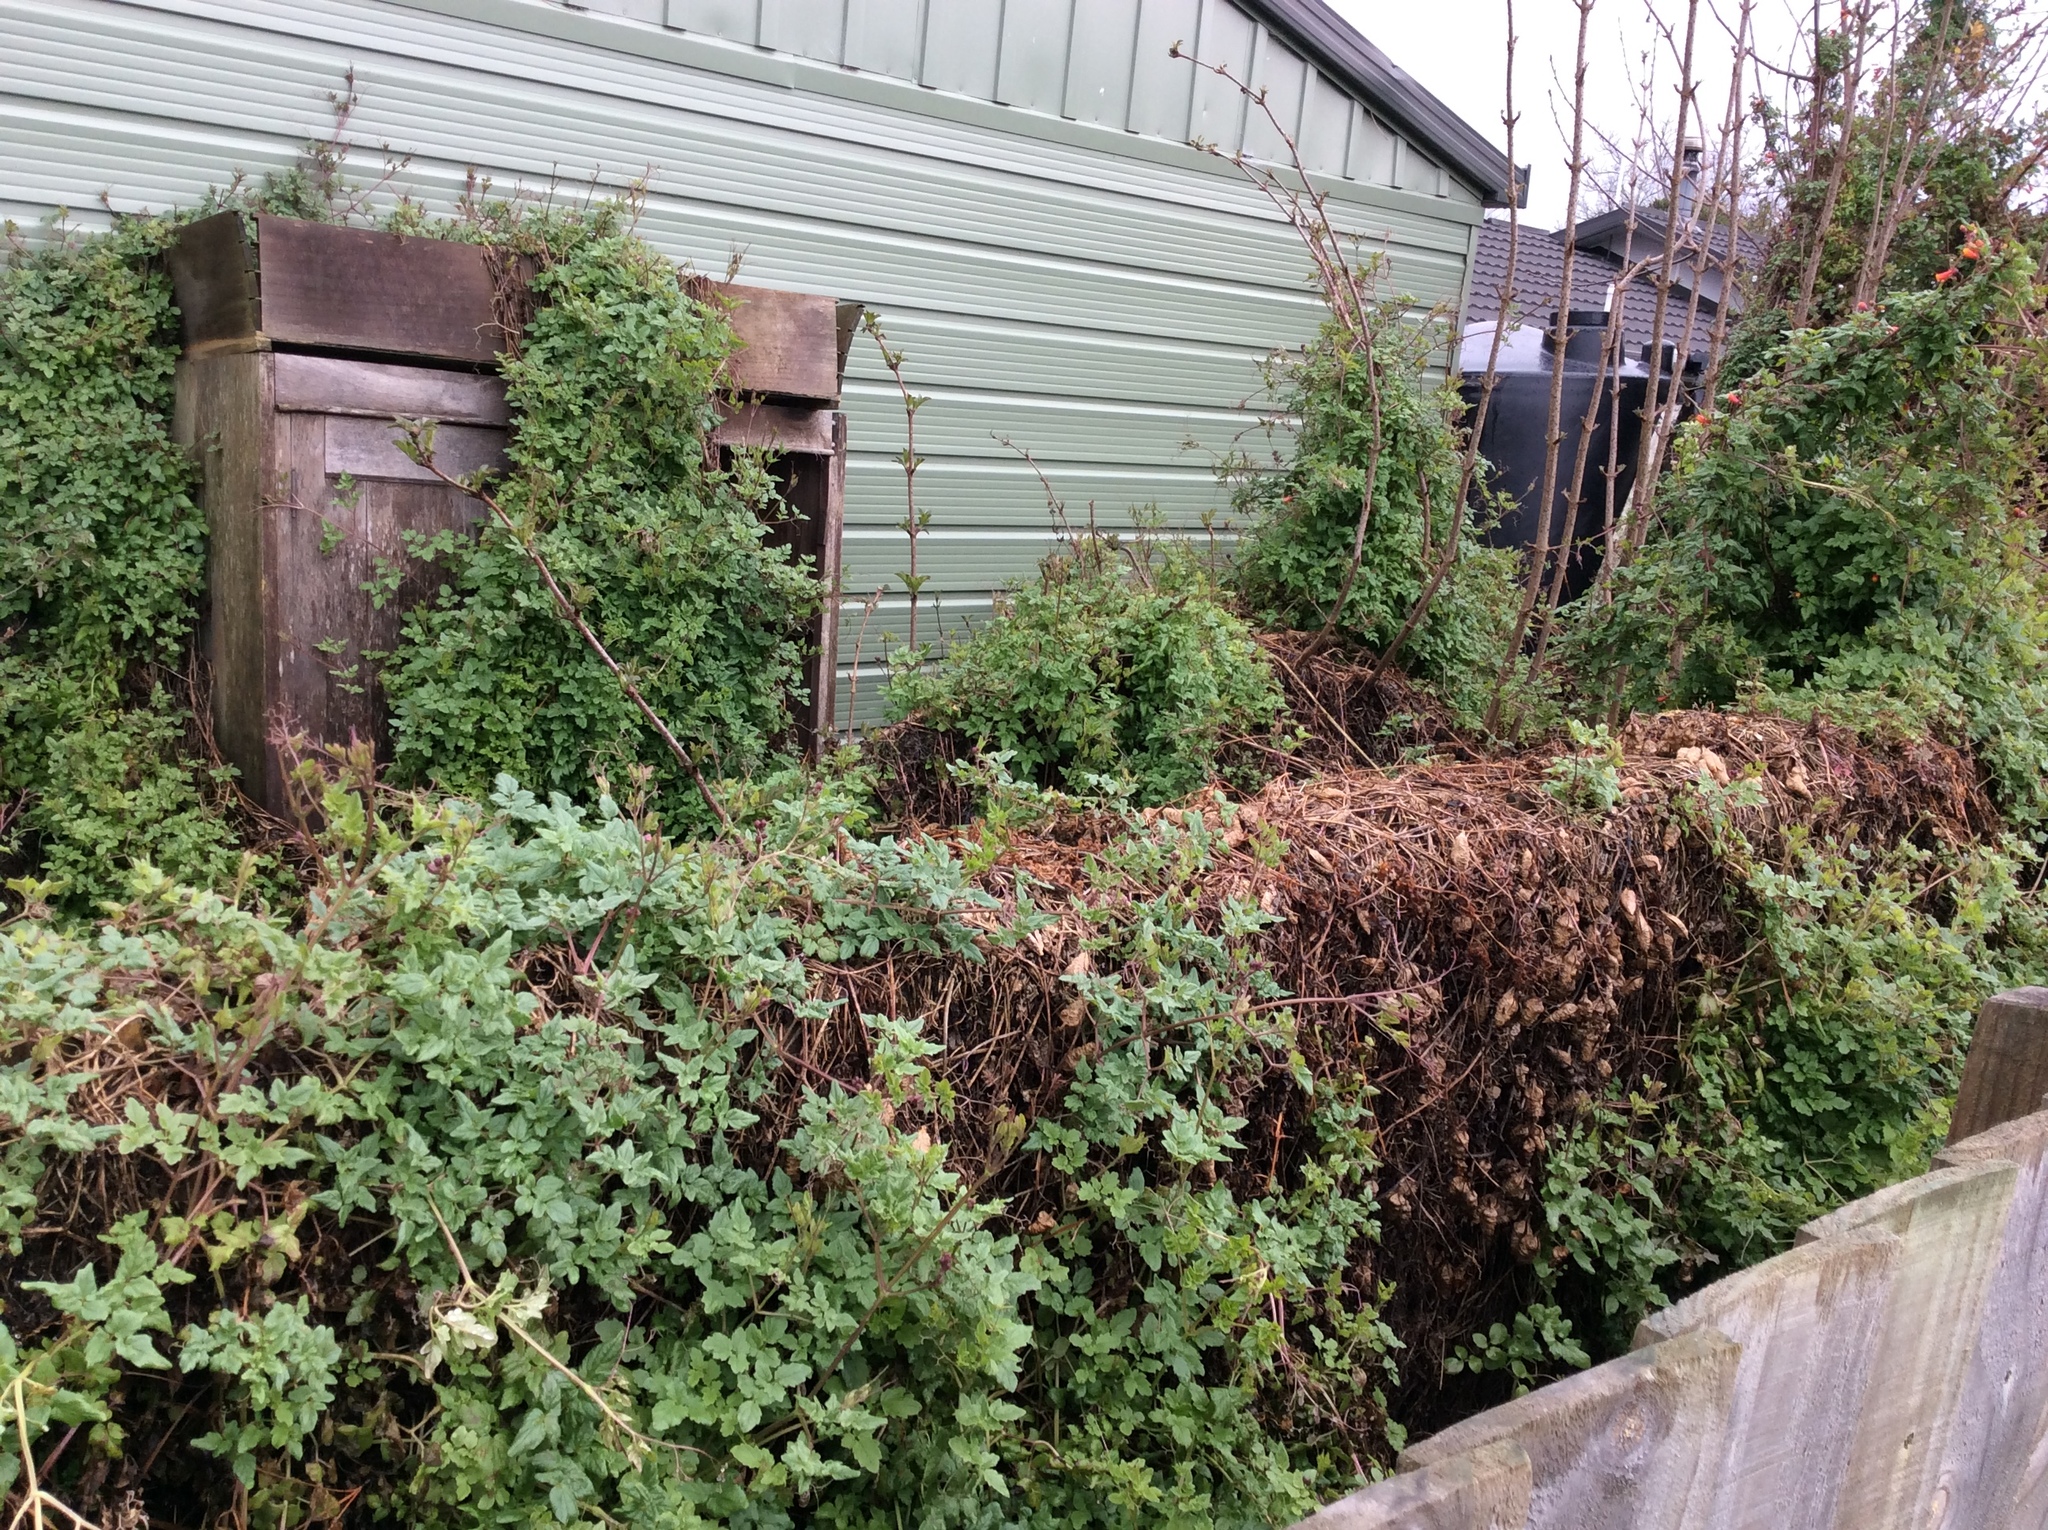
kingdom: Plantae
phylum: Tracheophyta
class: Magnoliopsida
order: Lamiales
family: Bignoniaceae
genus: Eccremocarpus
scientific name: Eccremocarpus scaber
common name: Chilean glory-flower
